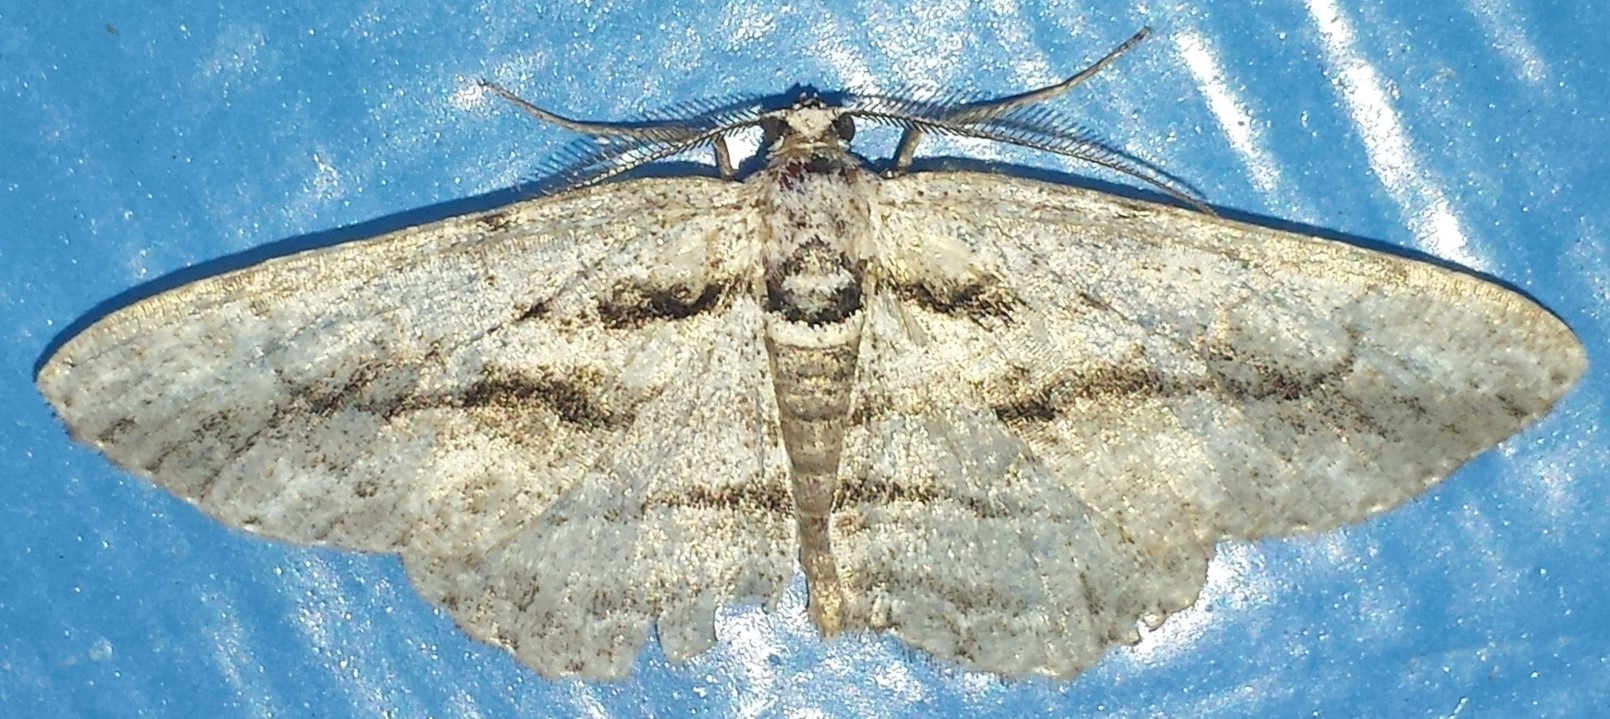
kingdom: Animalia
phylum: Arthropoda
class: Insecta
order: Lepidoptera
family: Geometridae
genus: Anavitrinella
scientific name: Anavitrinella pampinaria
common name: Common gray
